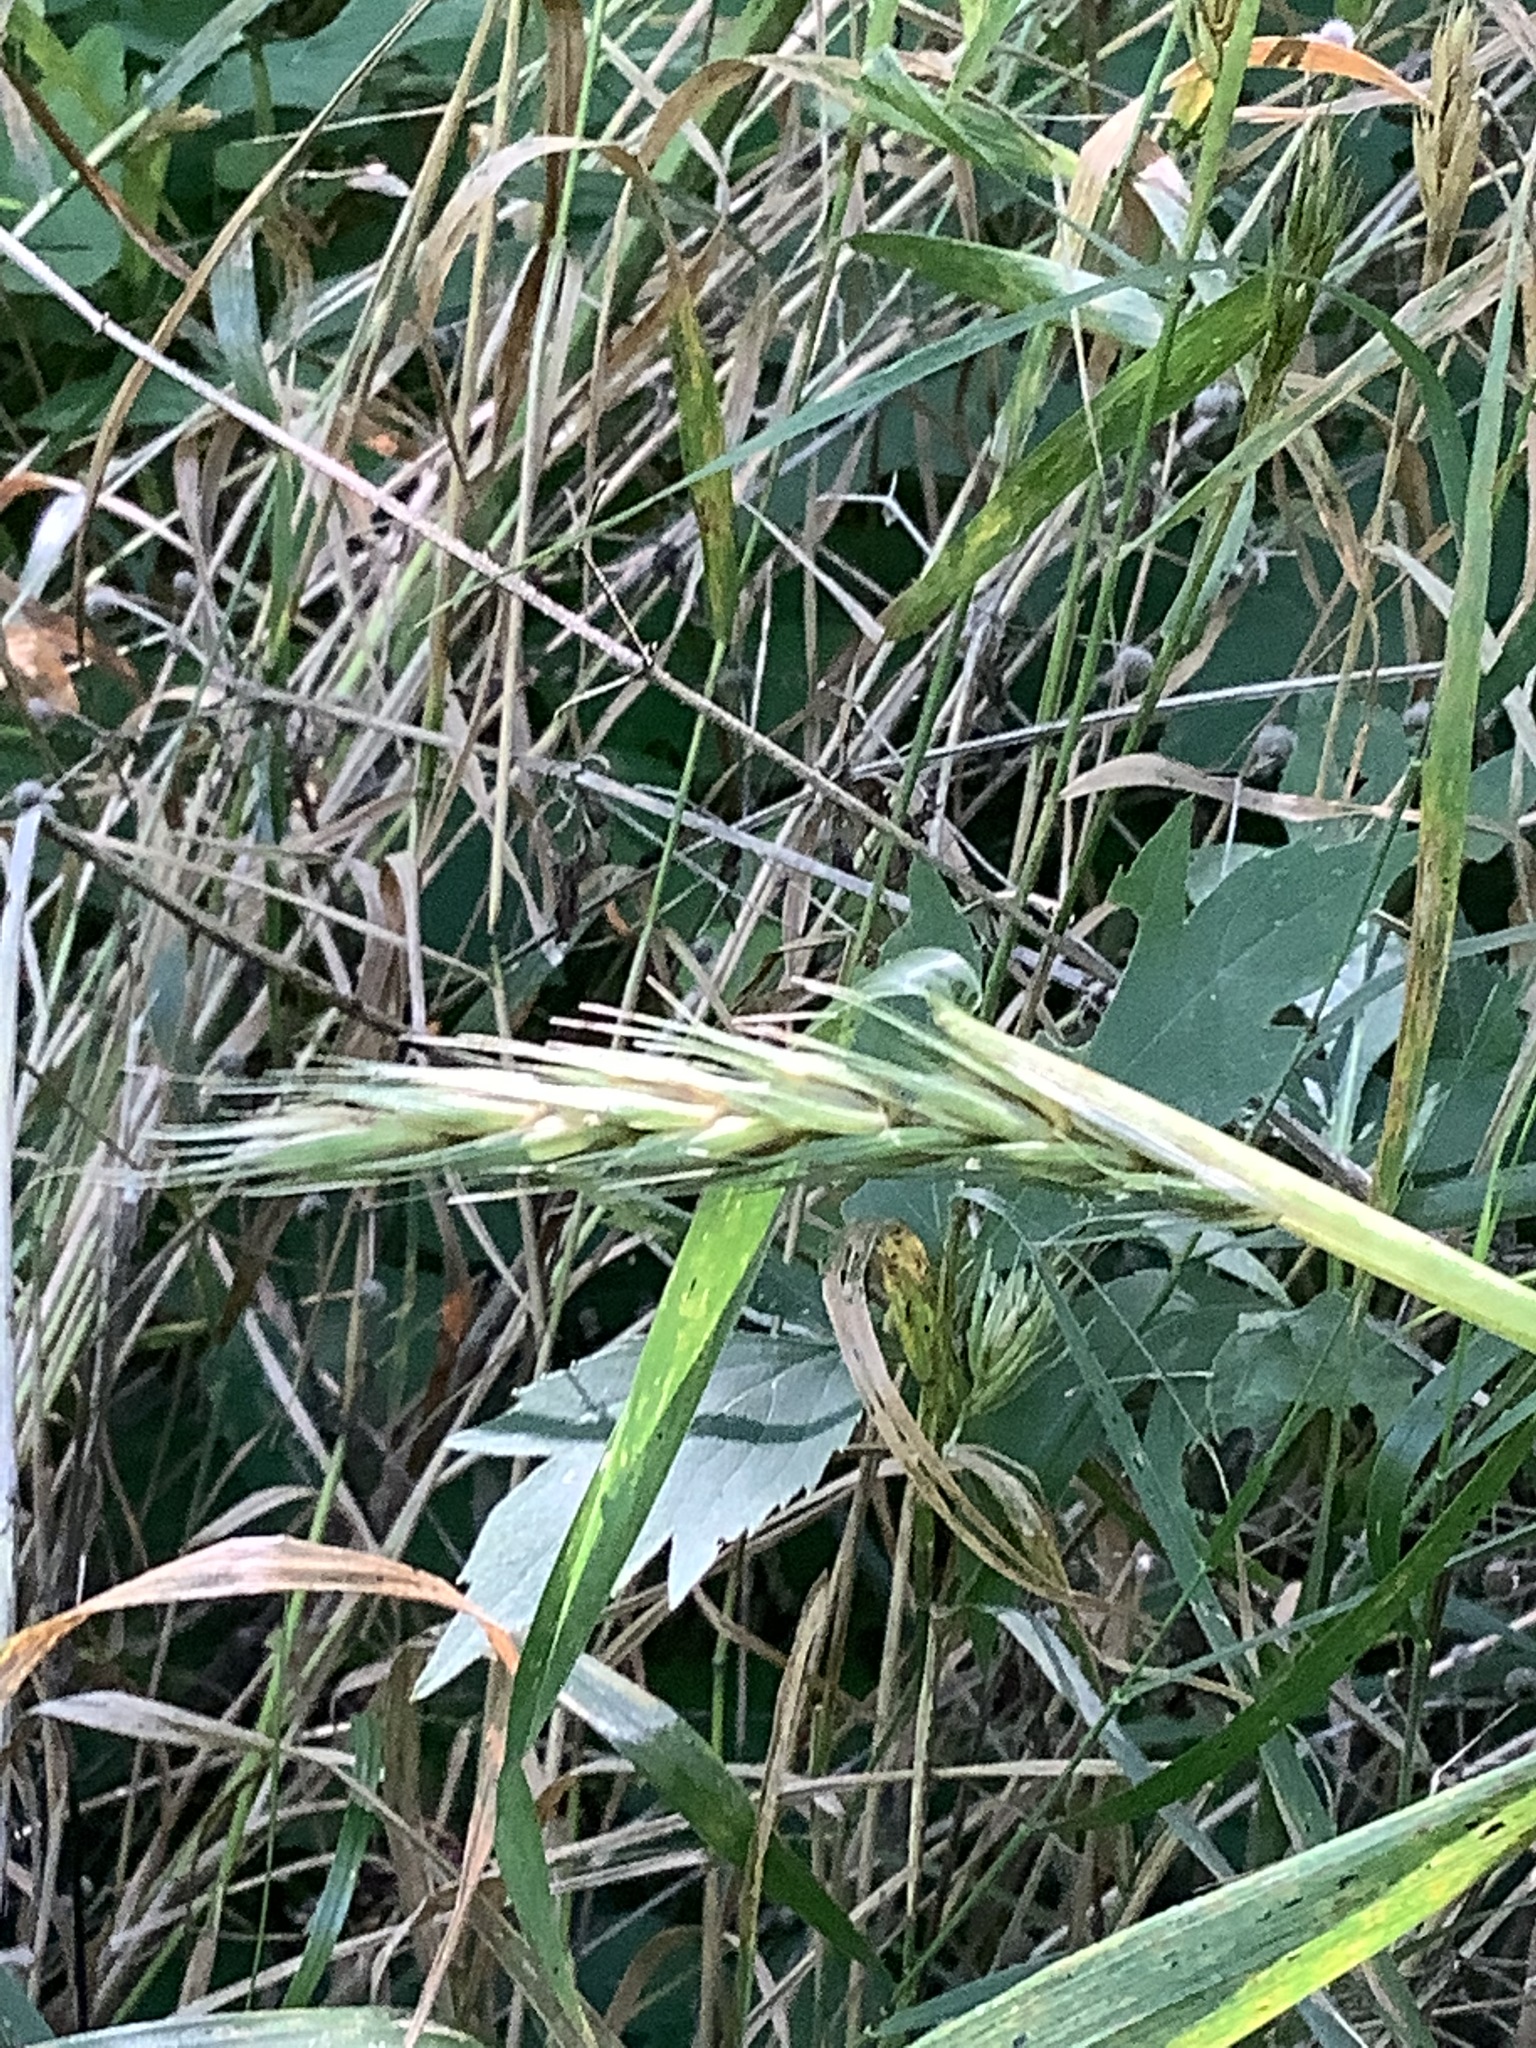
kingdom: Plantae
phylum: Tracheophyta
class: Liliopsida
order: Poales
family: Poaceae
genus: Elymus
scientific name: Elymus virginicus
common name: Common eastern wildrye
